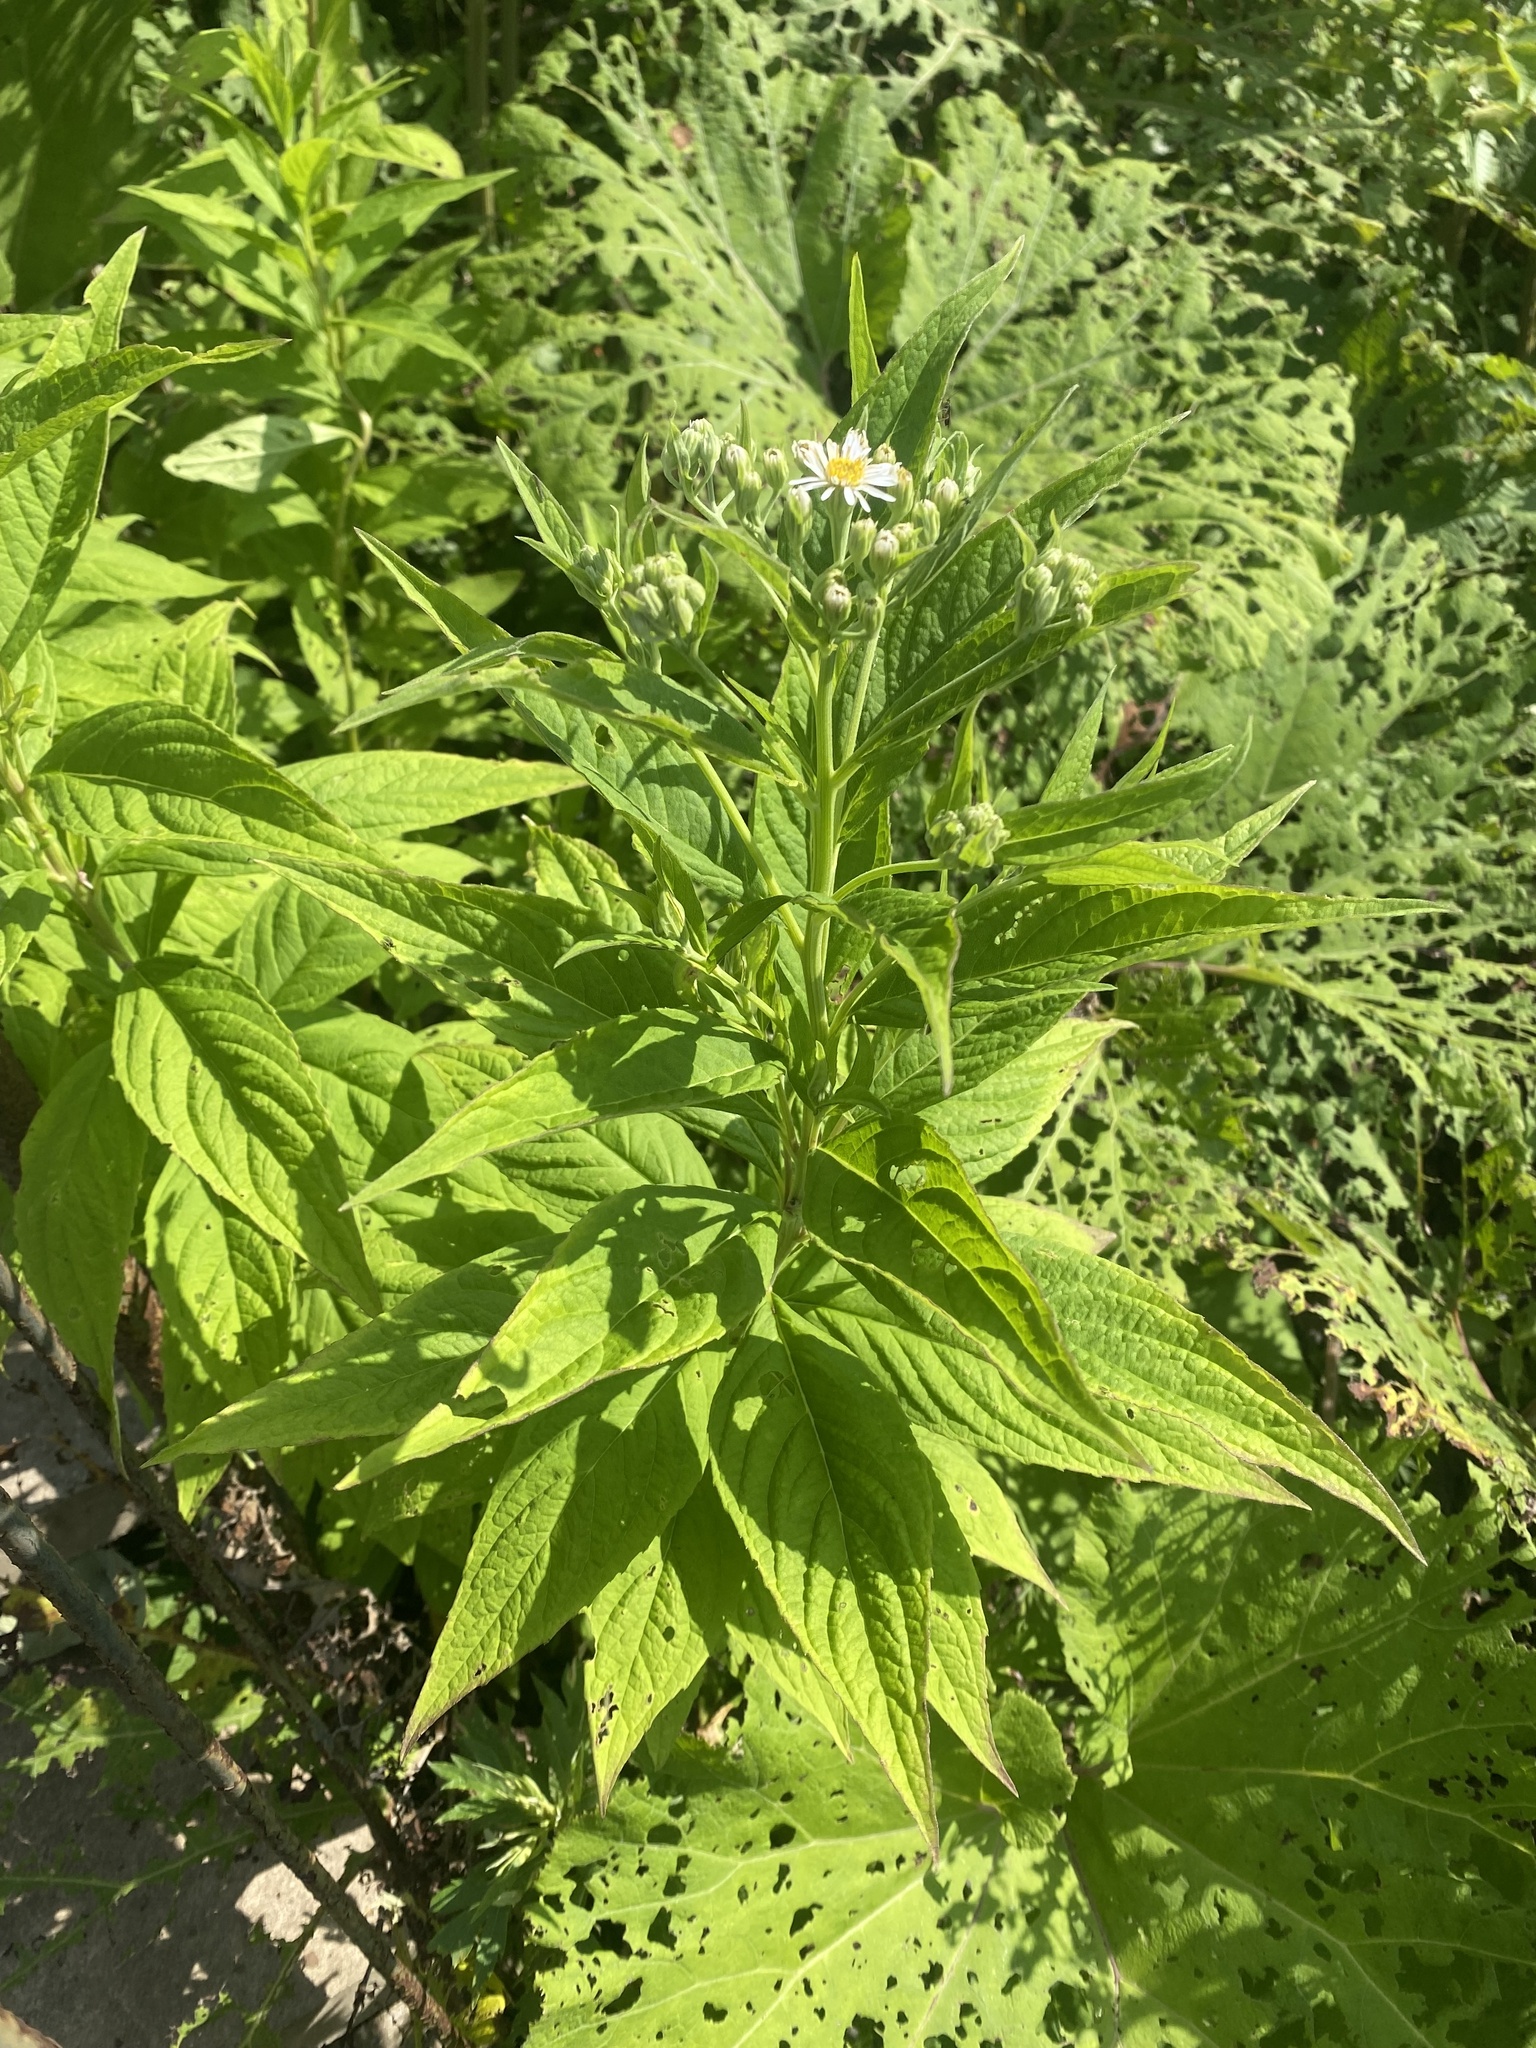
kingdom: Plantae
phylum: Tracheophyta
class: Magnoliopsida
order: Asterales
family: Asteraceae
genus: Kitamuria
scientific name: Kitamuria glehnii
